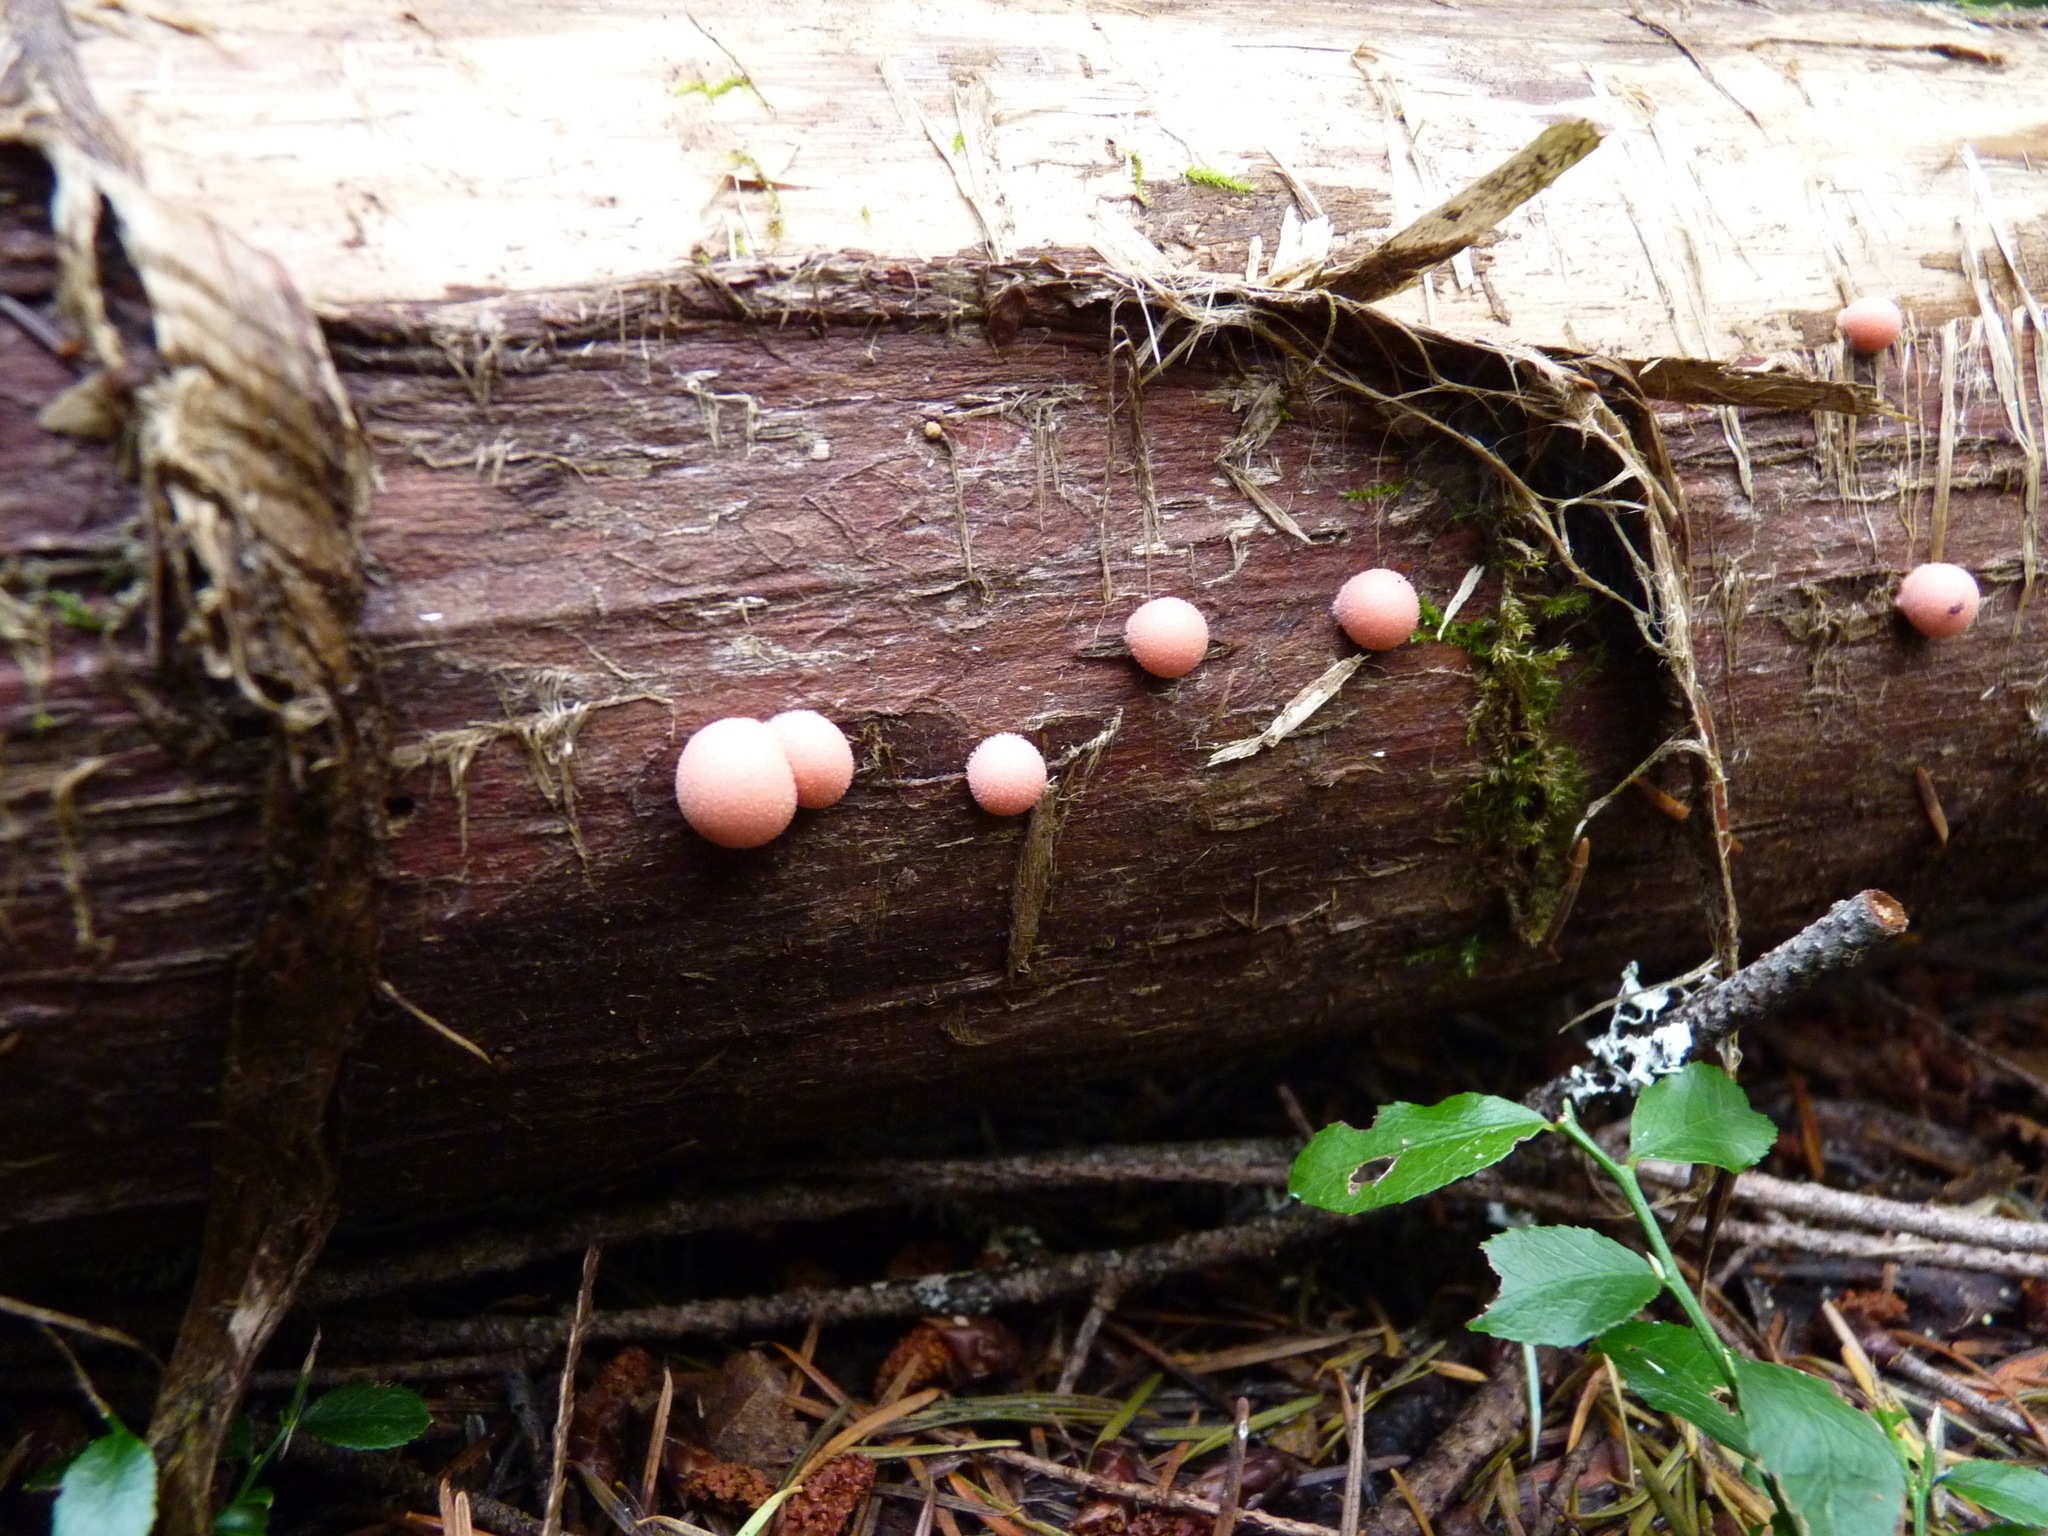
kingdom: Protozoa
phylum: Mycetozoa
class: Myxomycetes
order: Cribrariales
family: Tubiferaceae
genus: Lycogala
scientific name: Lycogala epidendrum
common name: Wolf's milk
